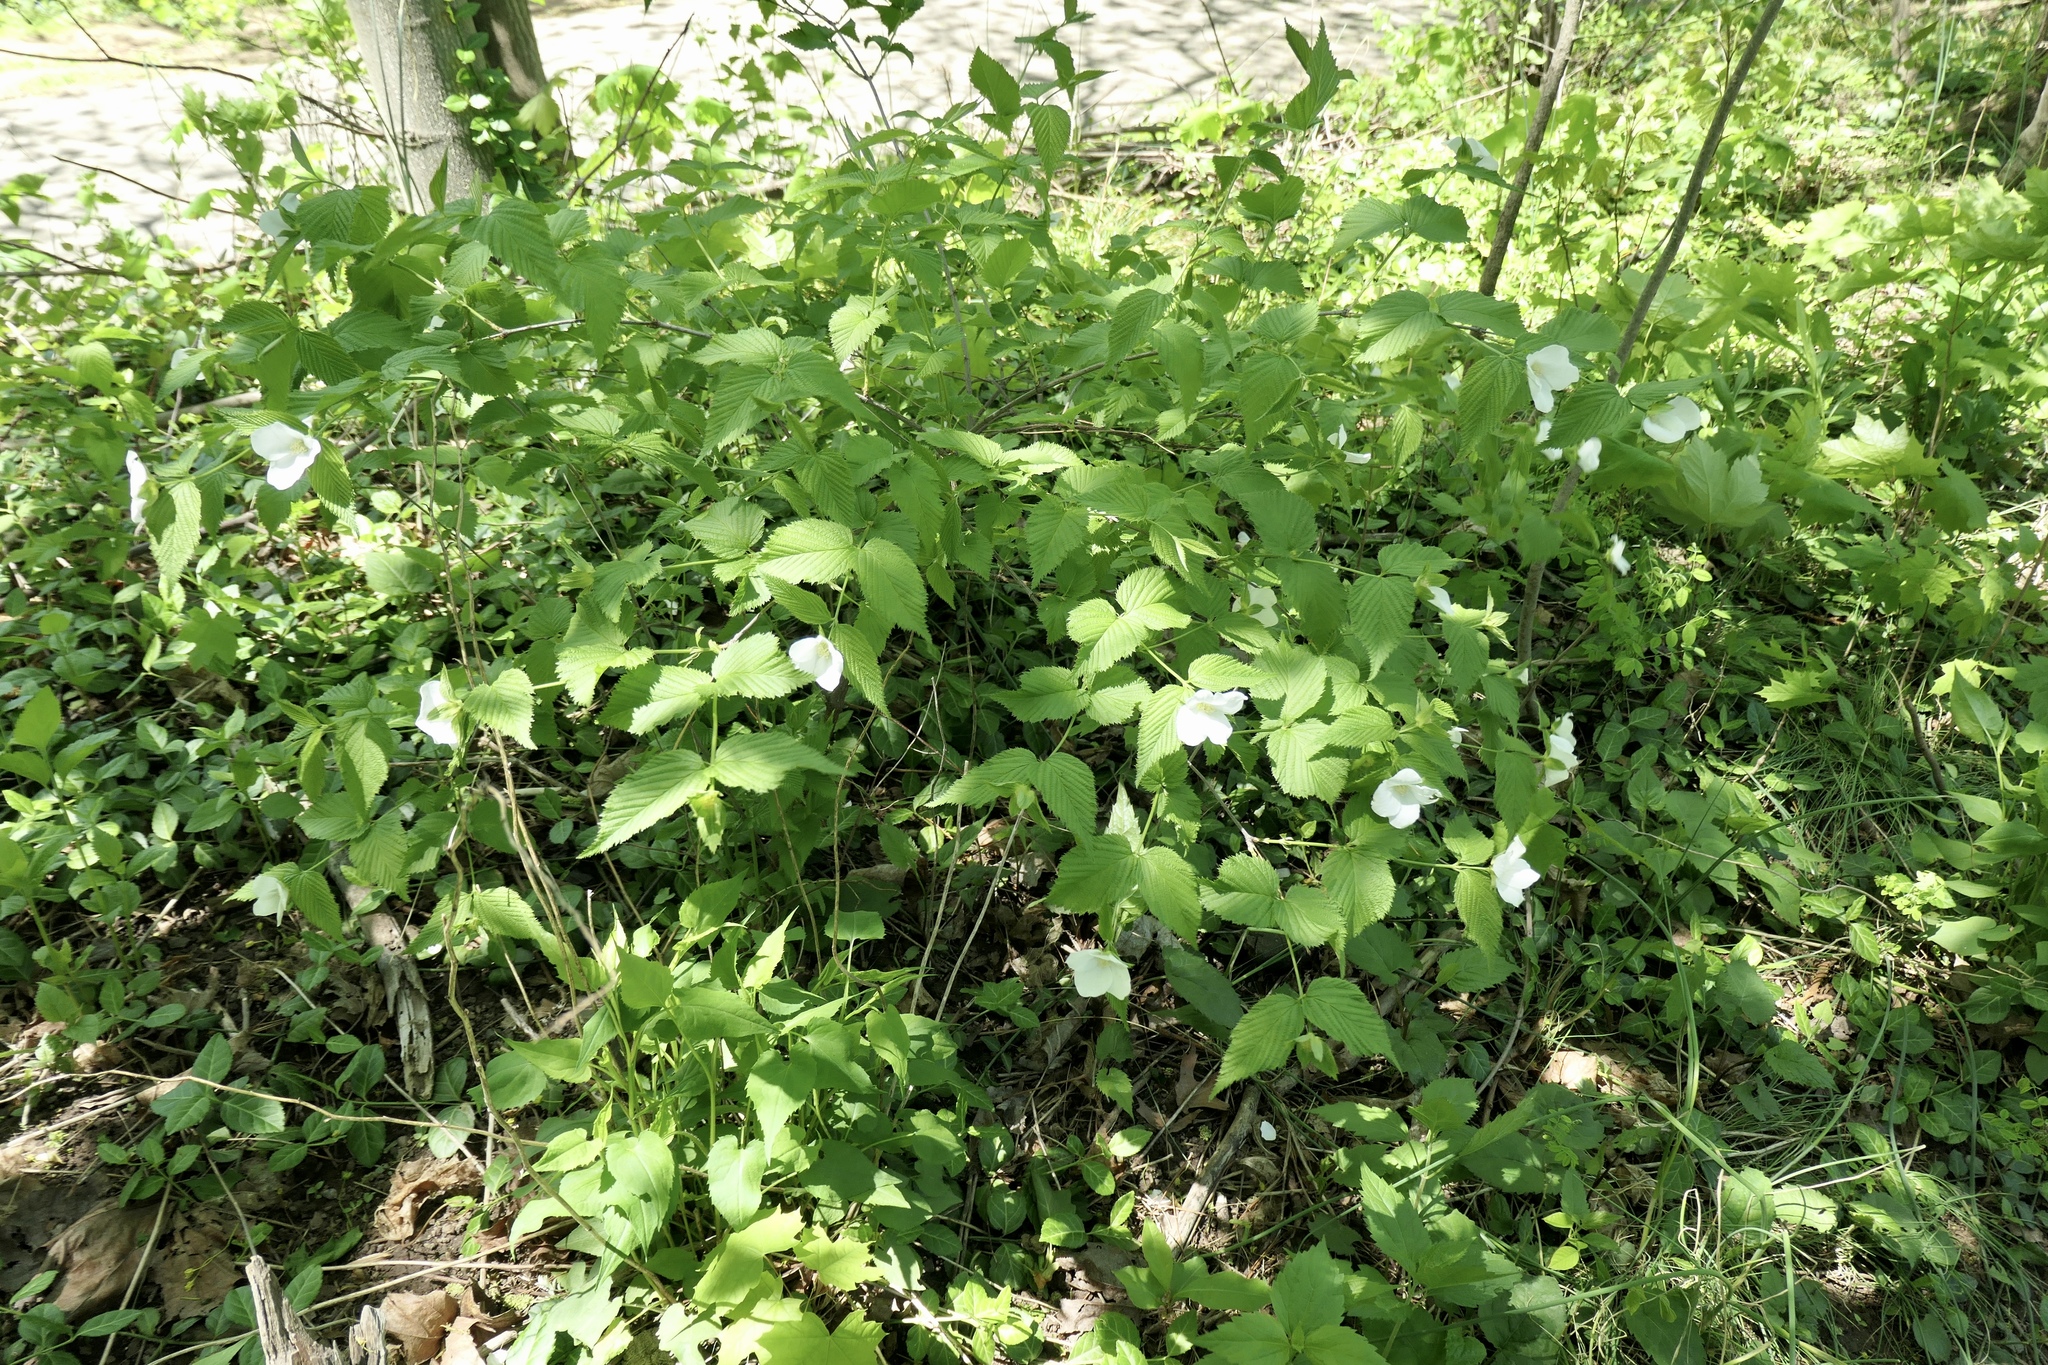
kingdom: Plantae
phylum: Tracheophyta
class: Magnoliopsida
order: Rosales
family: Rosaceae
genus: Rhodotypos
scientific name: Rhodotypos scandens
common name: Jetbead
